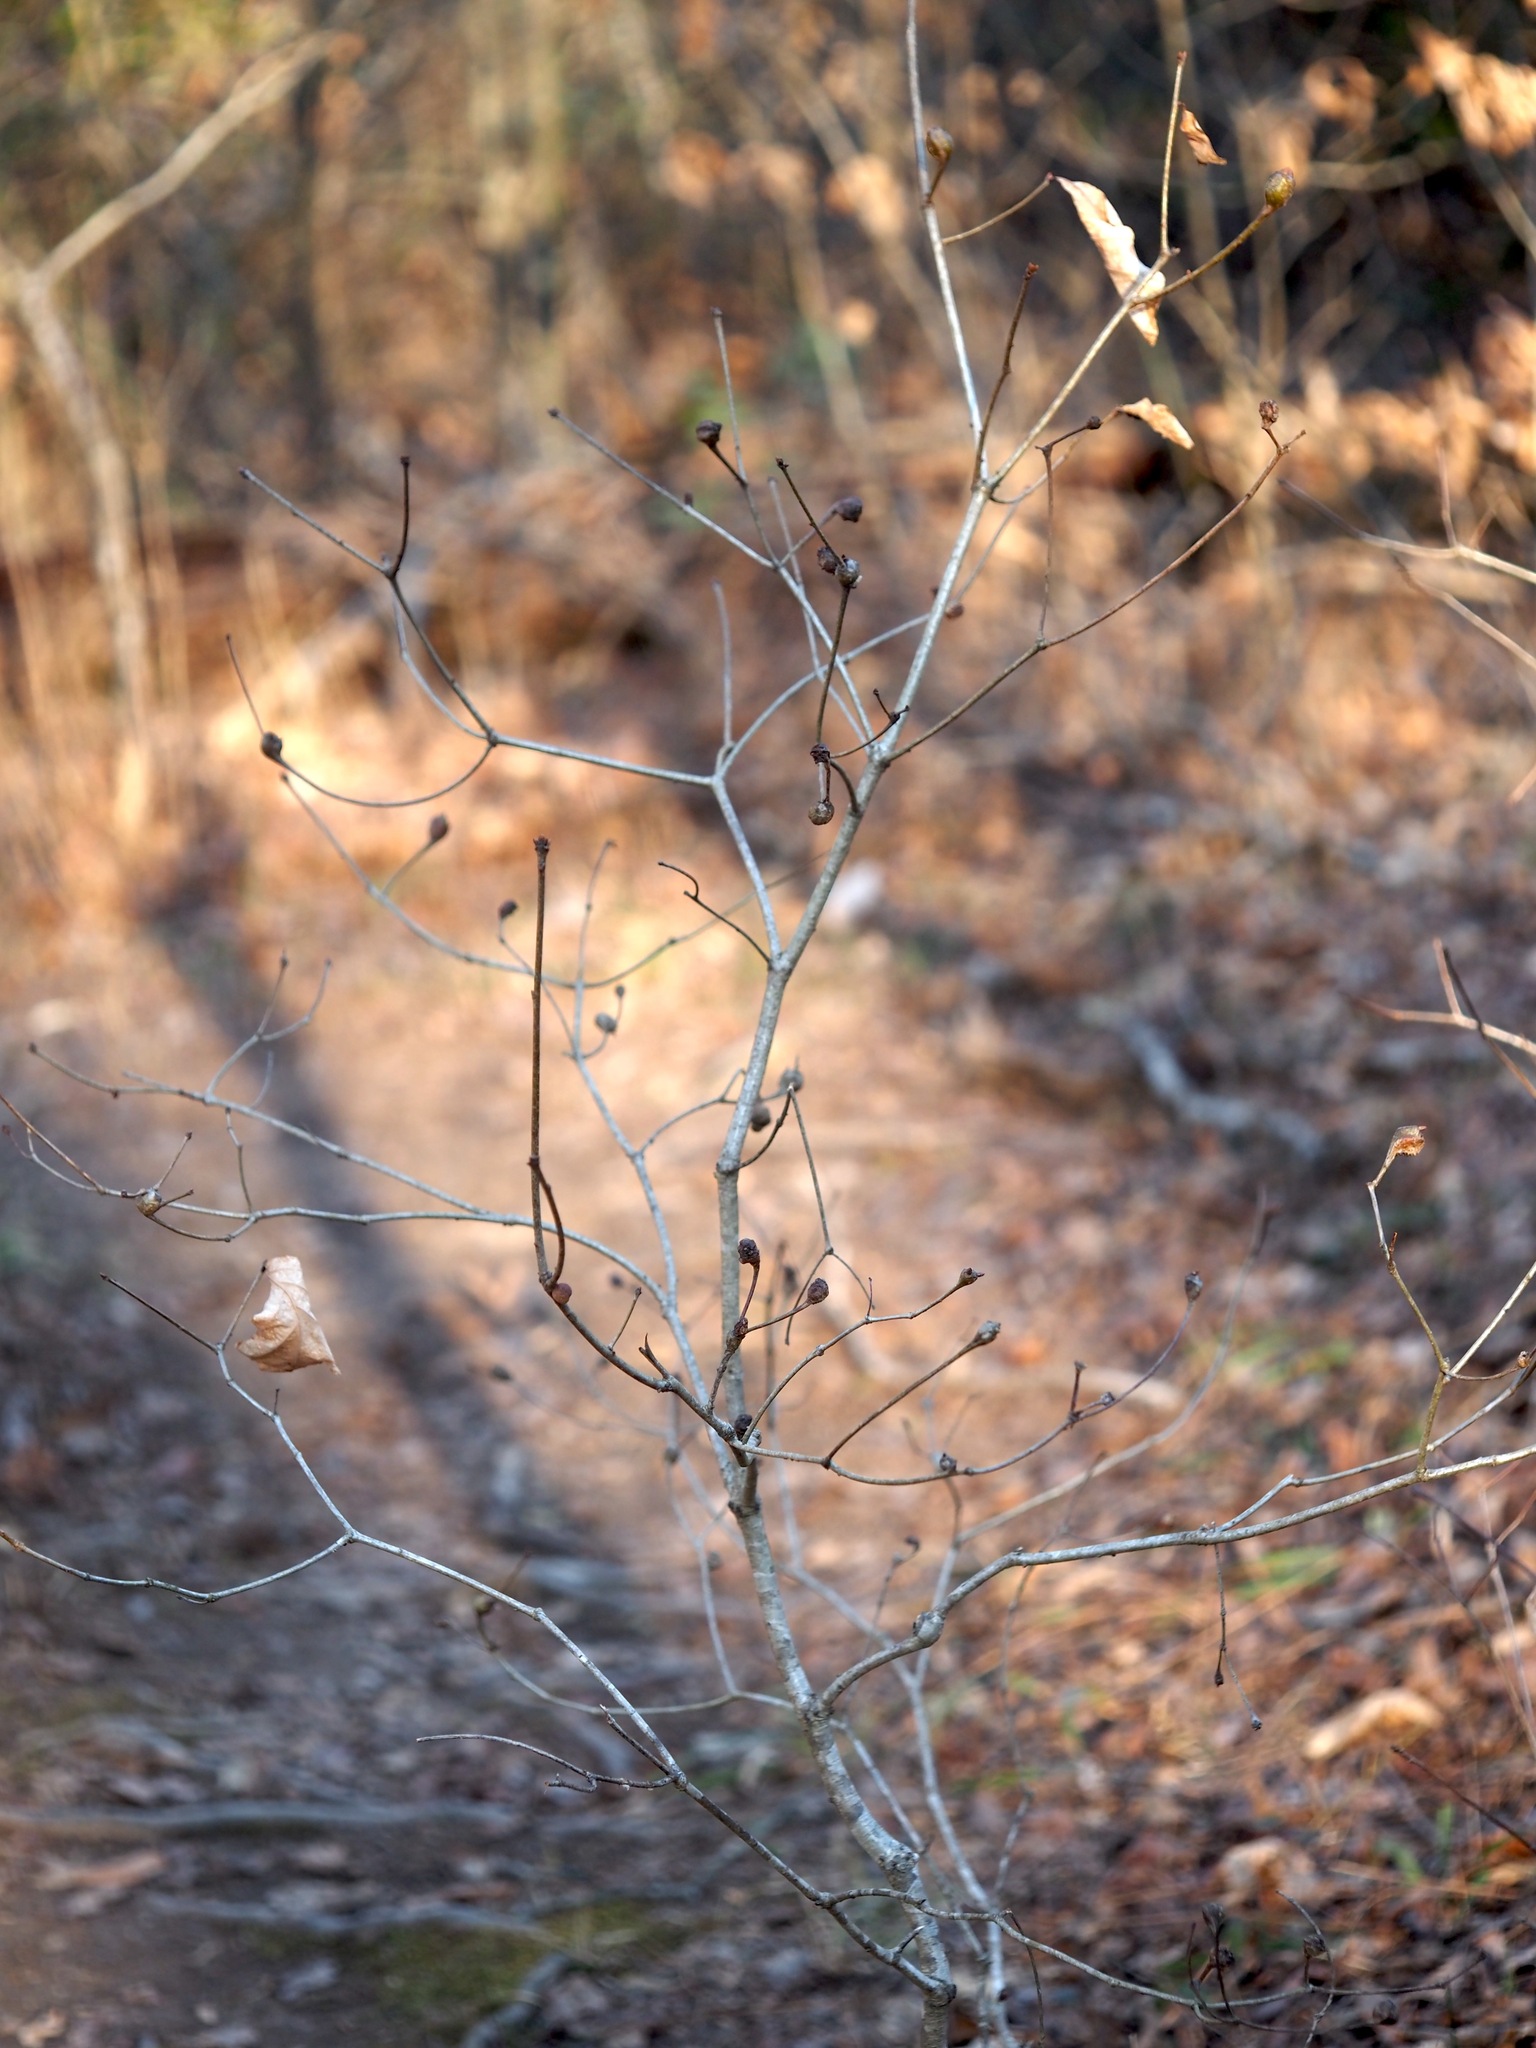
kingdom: Animalia
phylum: Arthropoda
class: Insecta
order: Hymenoptera
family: Cynipidae
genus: Callirhytis
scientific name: Callirhytis clavula
